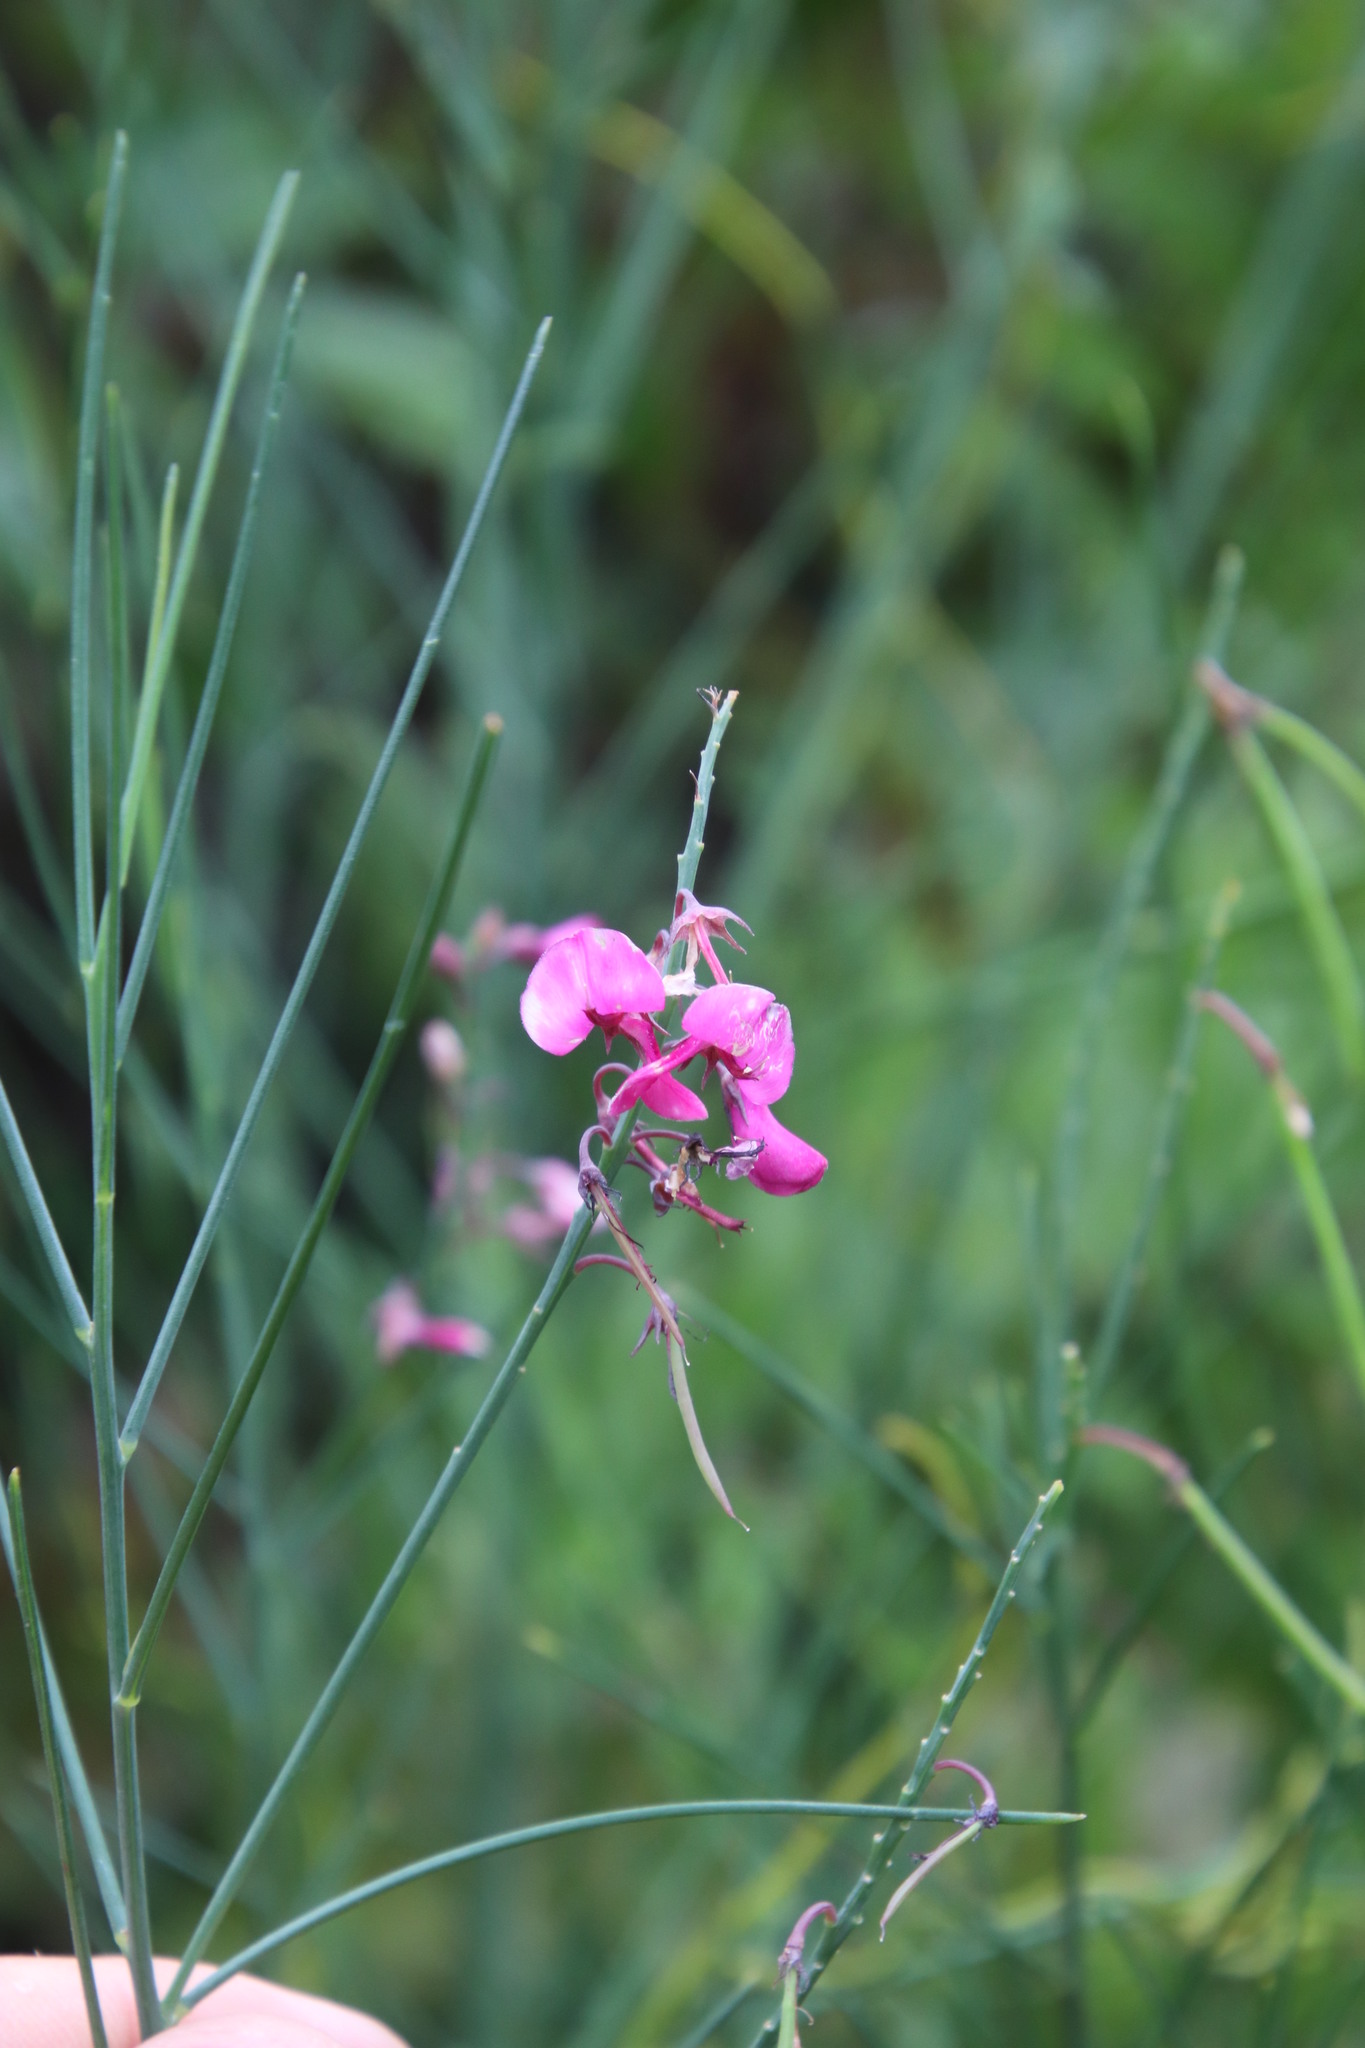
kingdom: Plantae
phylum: Tracheophyta
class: Magnoliopsida
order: Fabales
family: Fabaceae
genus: Indigofera
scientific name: Indigofera filifolia
